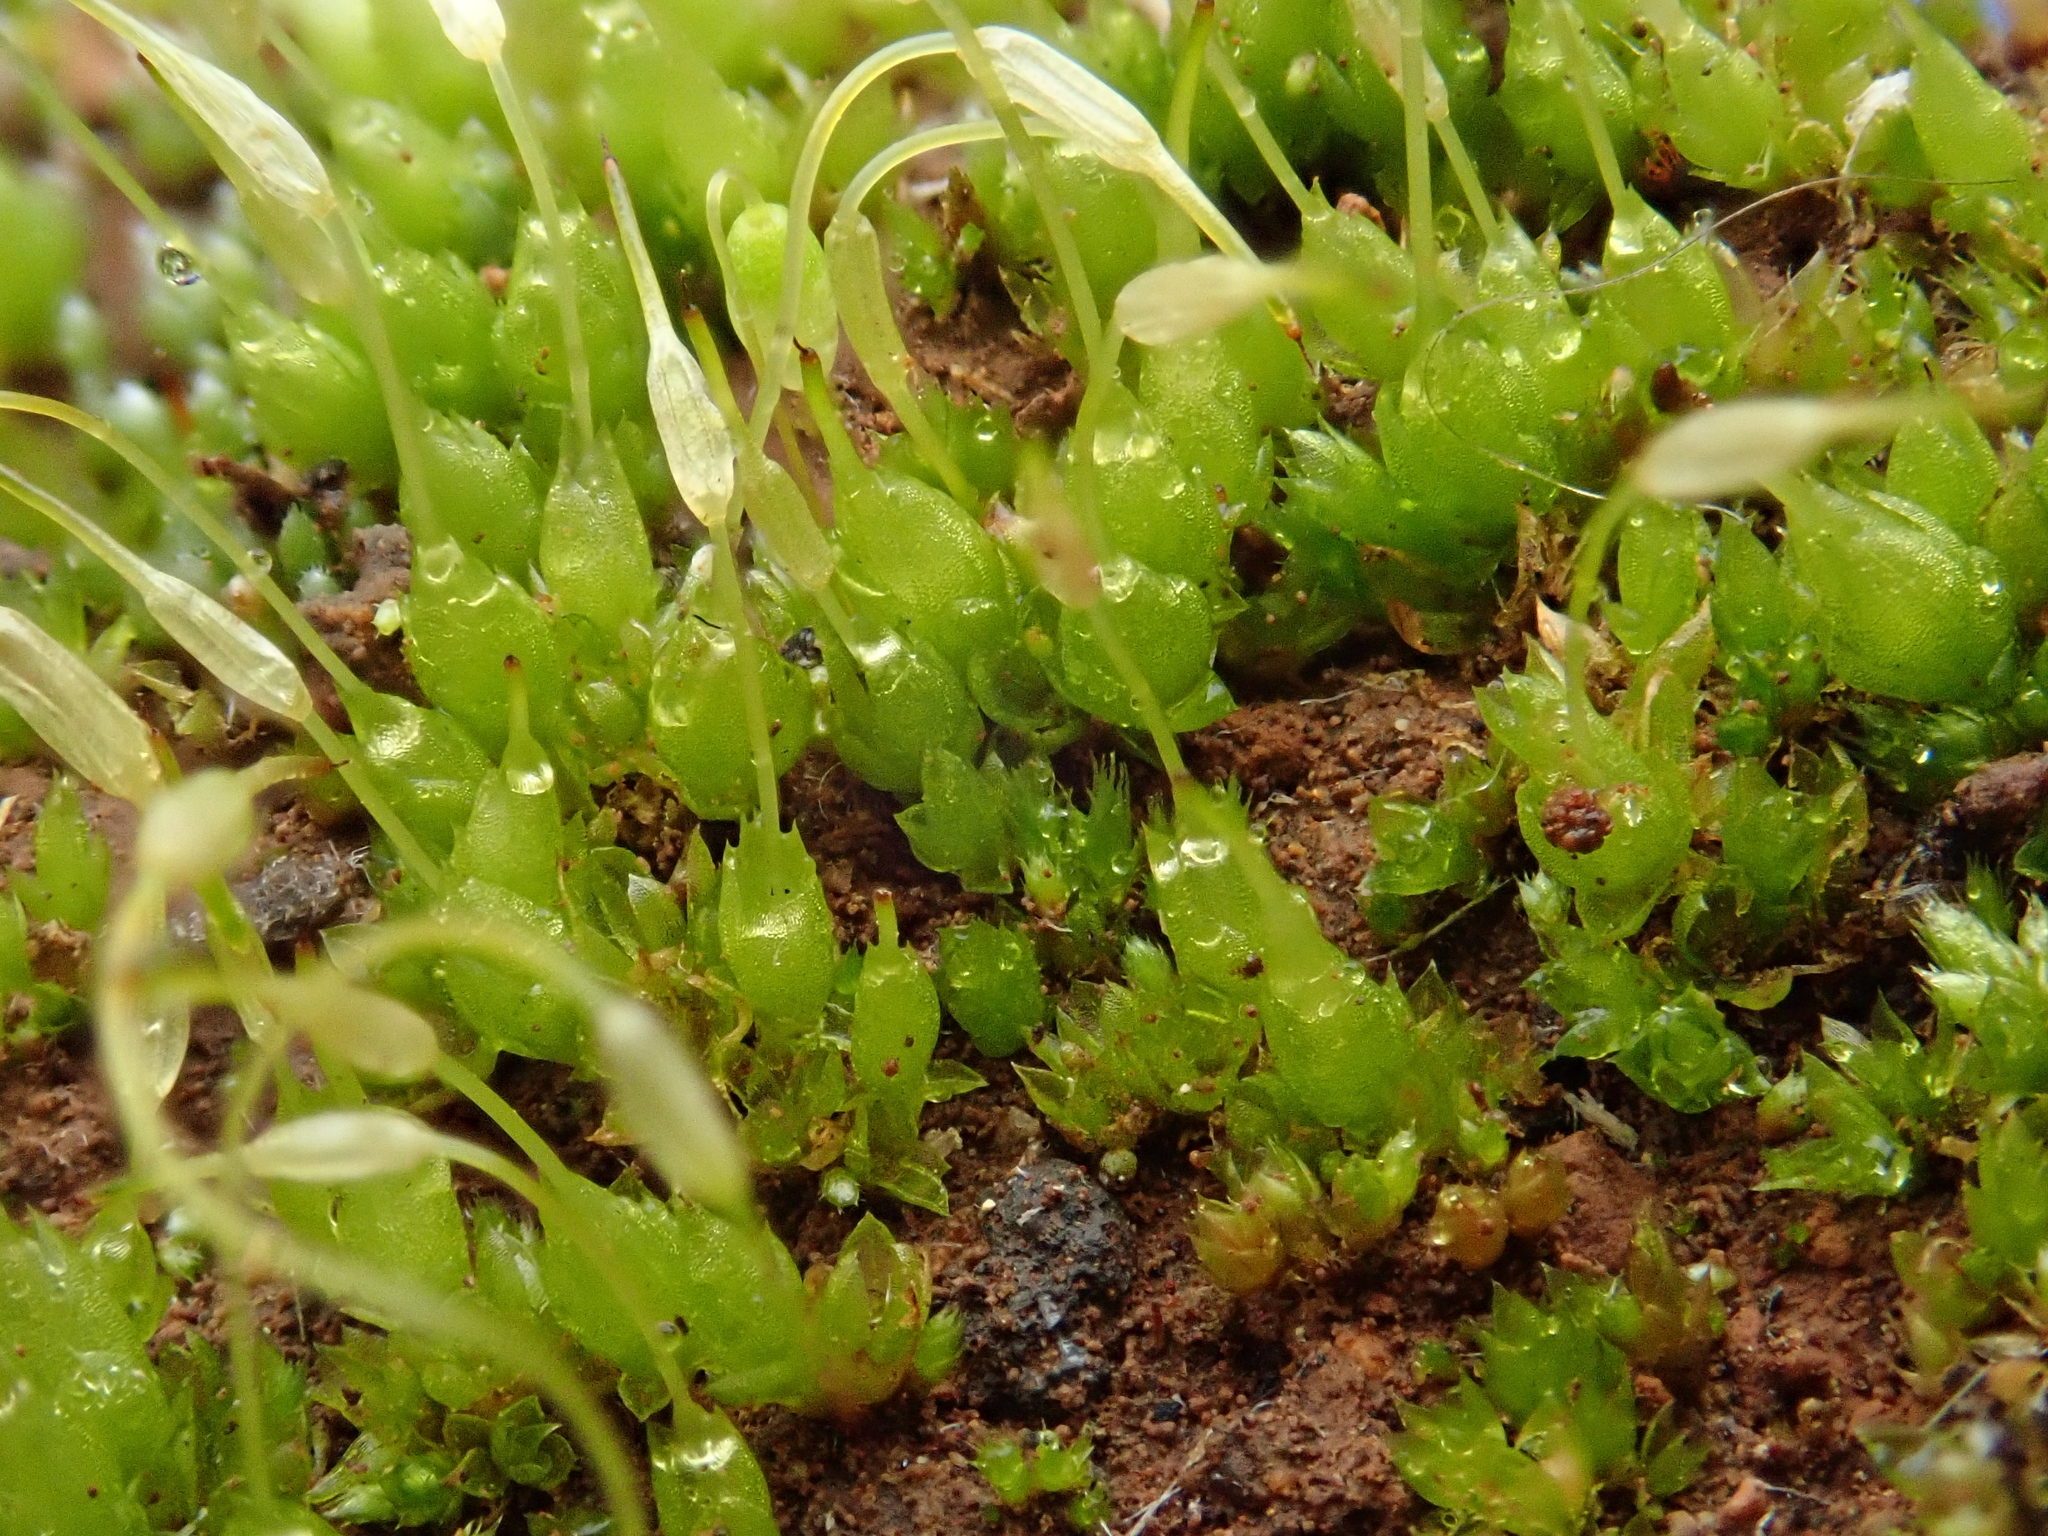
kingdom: Plantae
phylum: Bryophyta
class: Bryopsida
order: Funariales
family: Funariaceae
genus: Funaria
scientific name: Funaria hygrometrica
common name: Common cord moss
